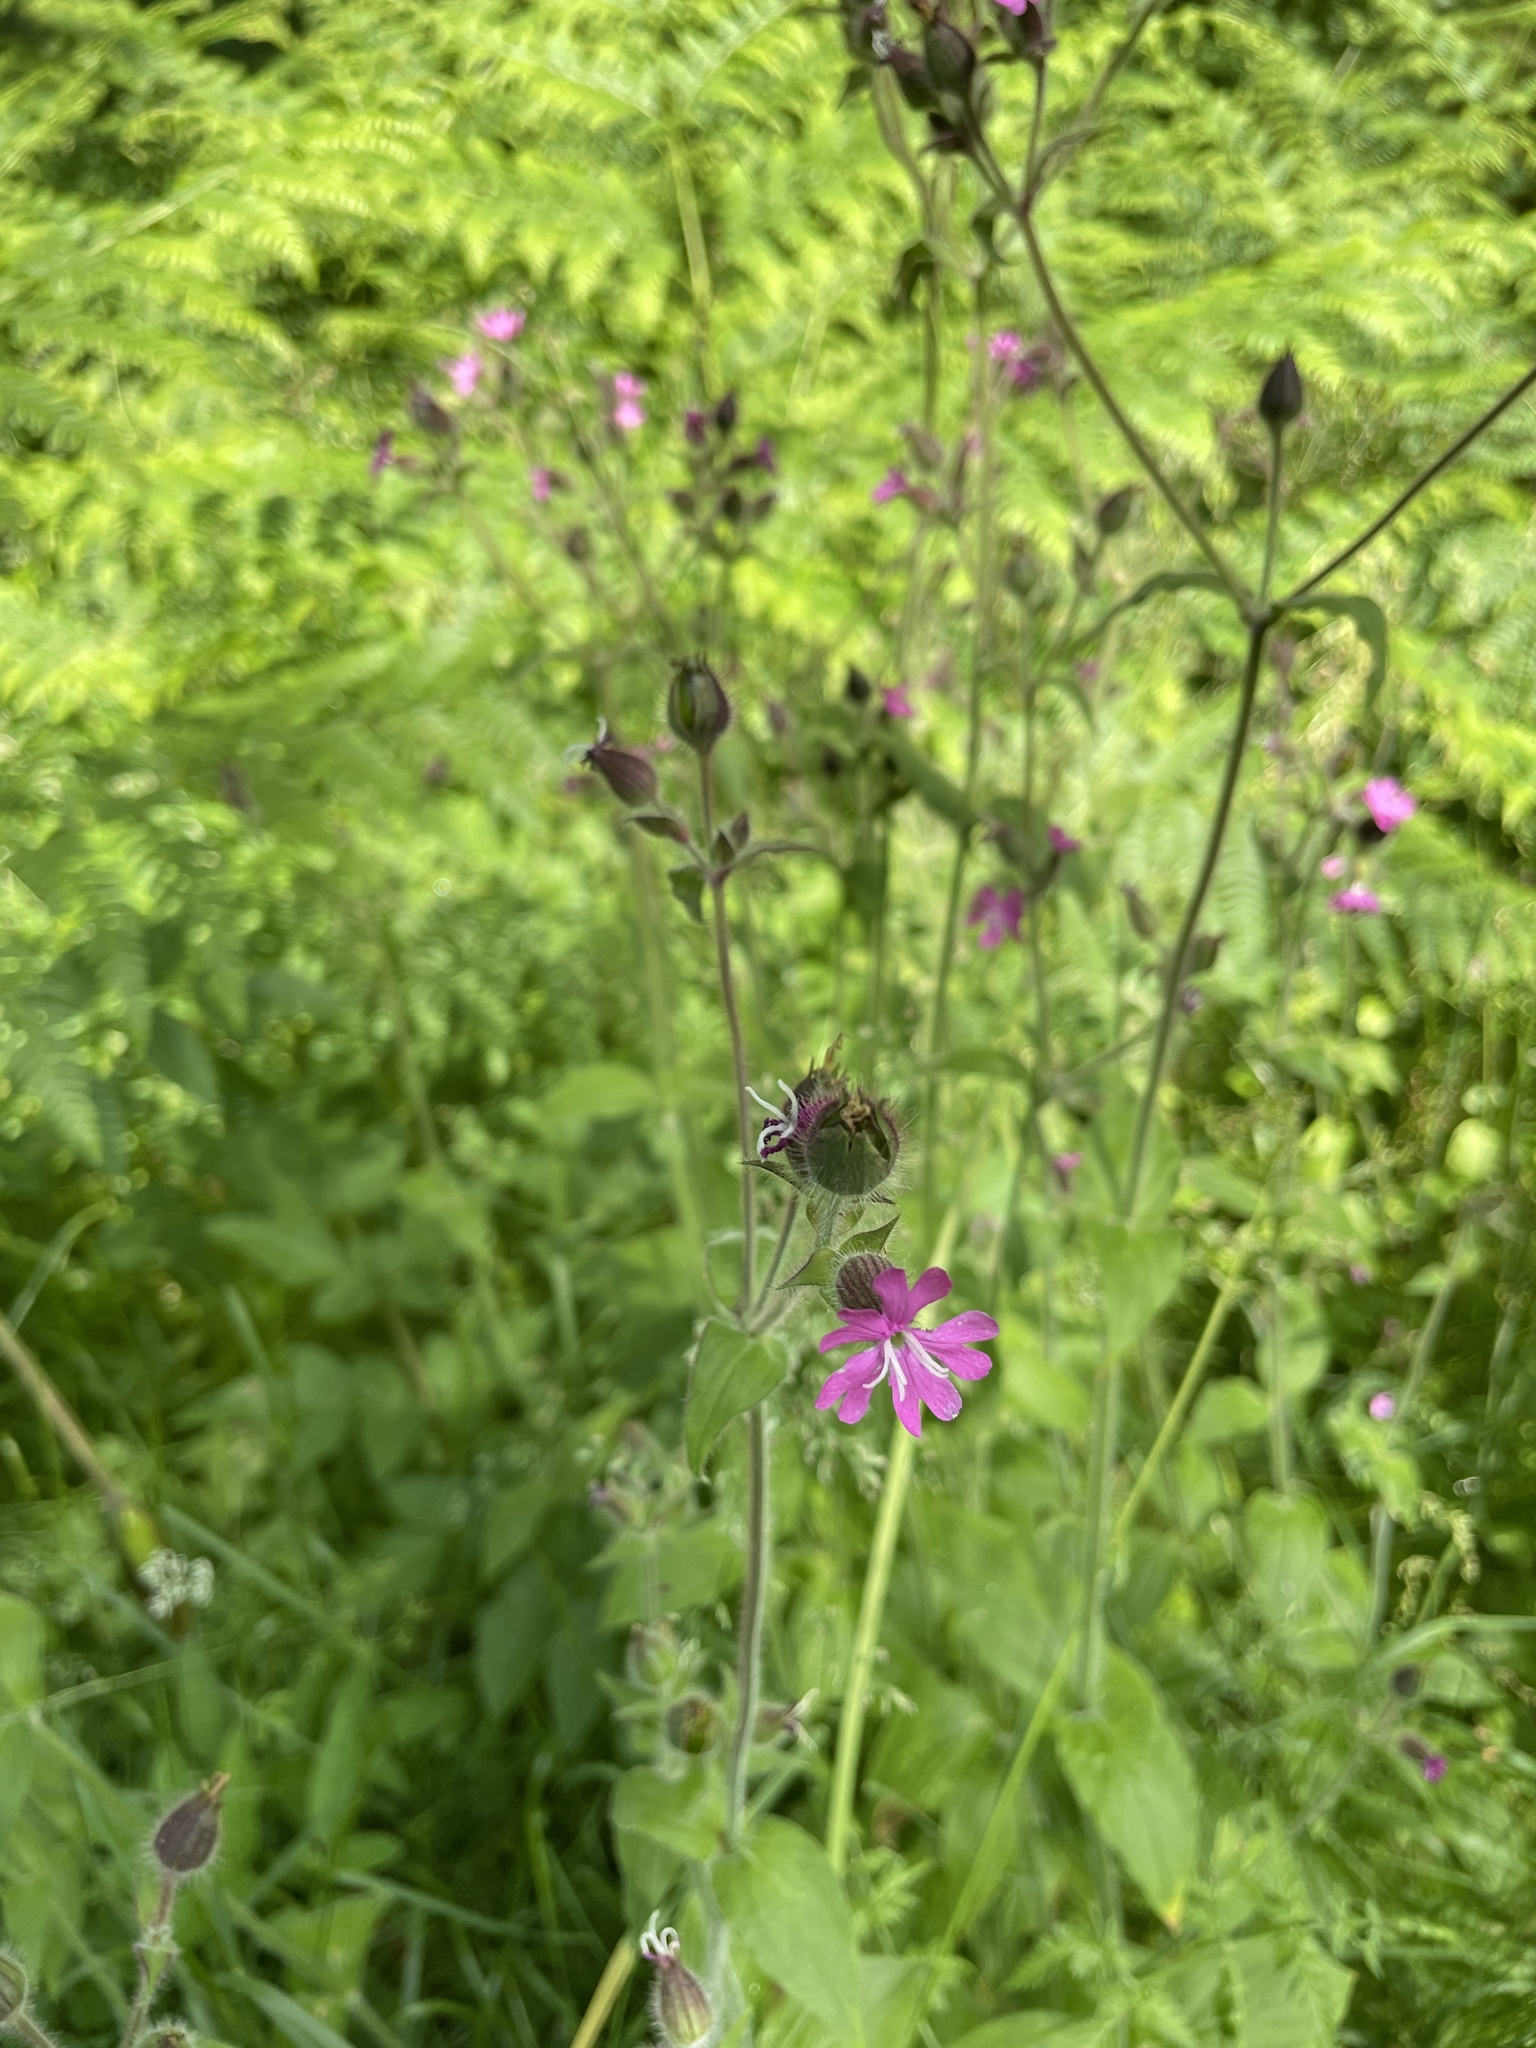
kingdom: Plantae
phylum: Tracheophyta
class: Magnoliopsida
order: Caryophyllales
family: Caryophyllaceae
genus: Silene
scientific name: Silene dioica
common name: Red campion
